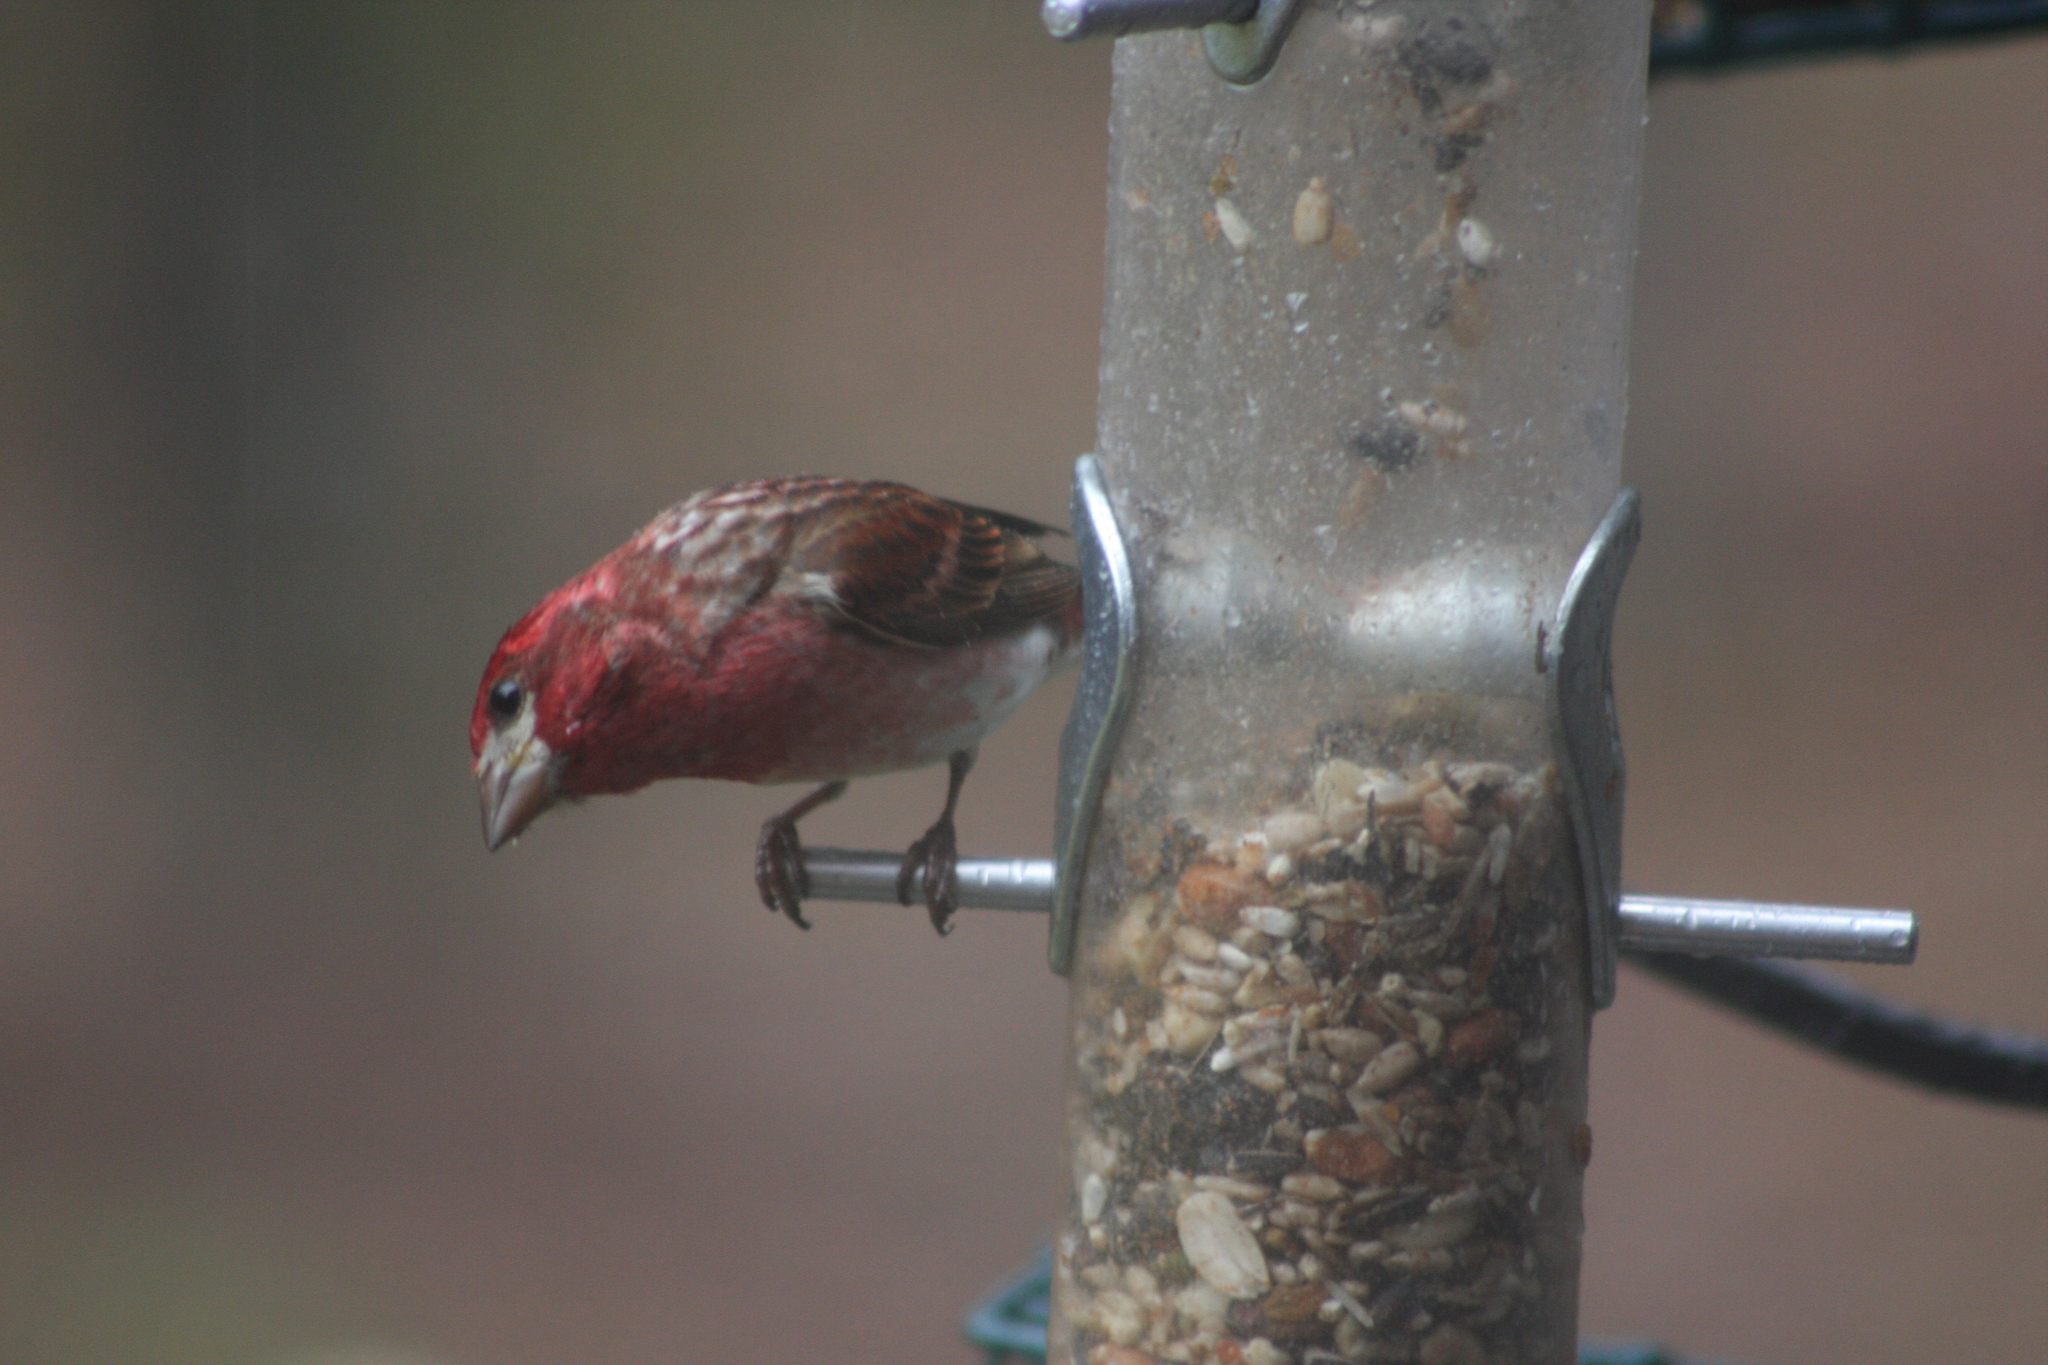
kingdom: Animalia
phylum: Chordata
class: Aves
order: Passeriformes
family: Fringillidae
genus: Haemorhous
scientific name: Haemorhous purpureus
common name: Purple finch
